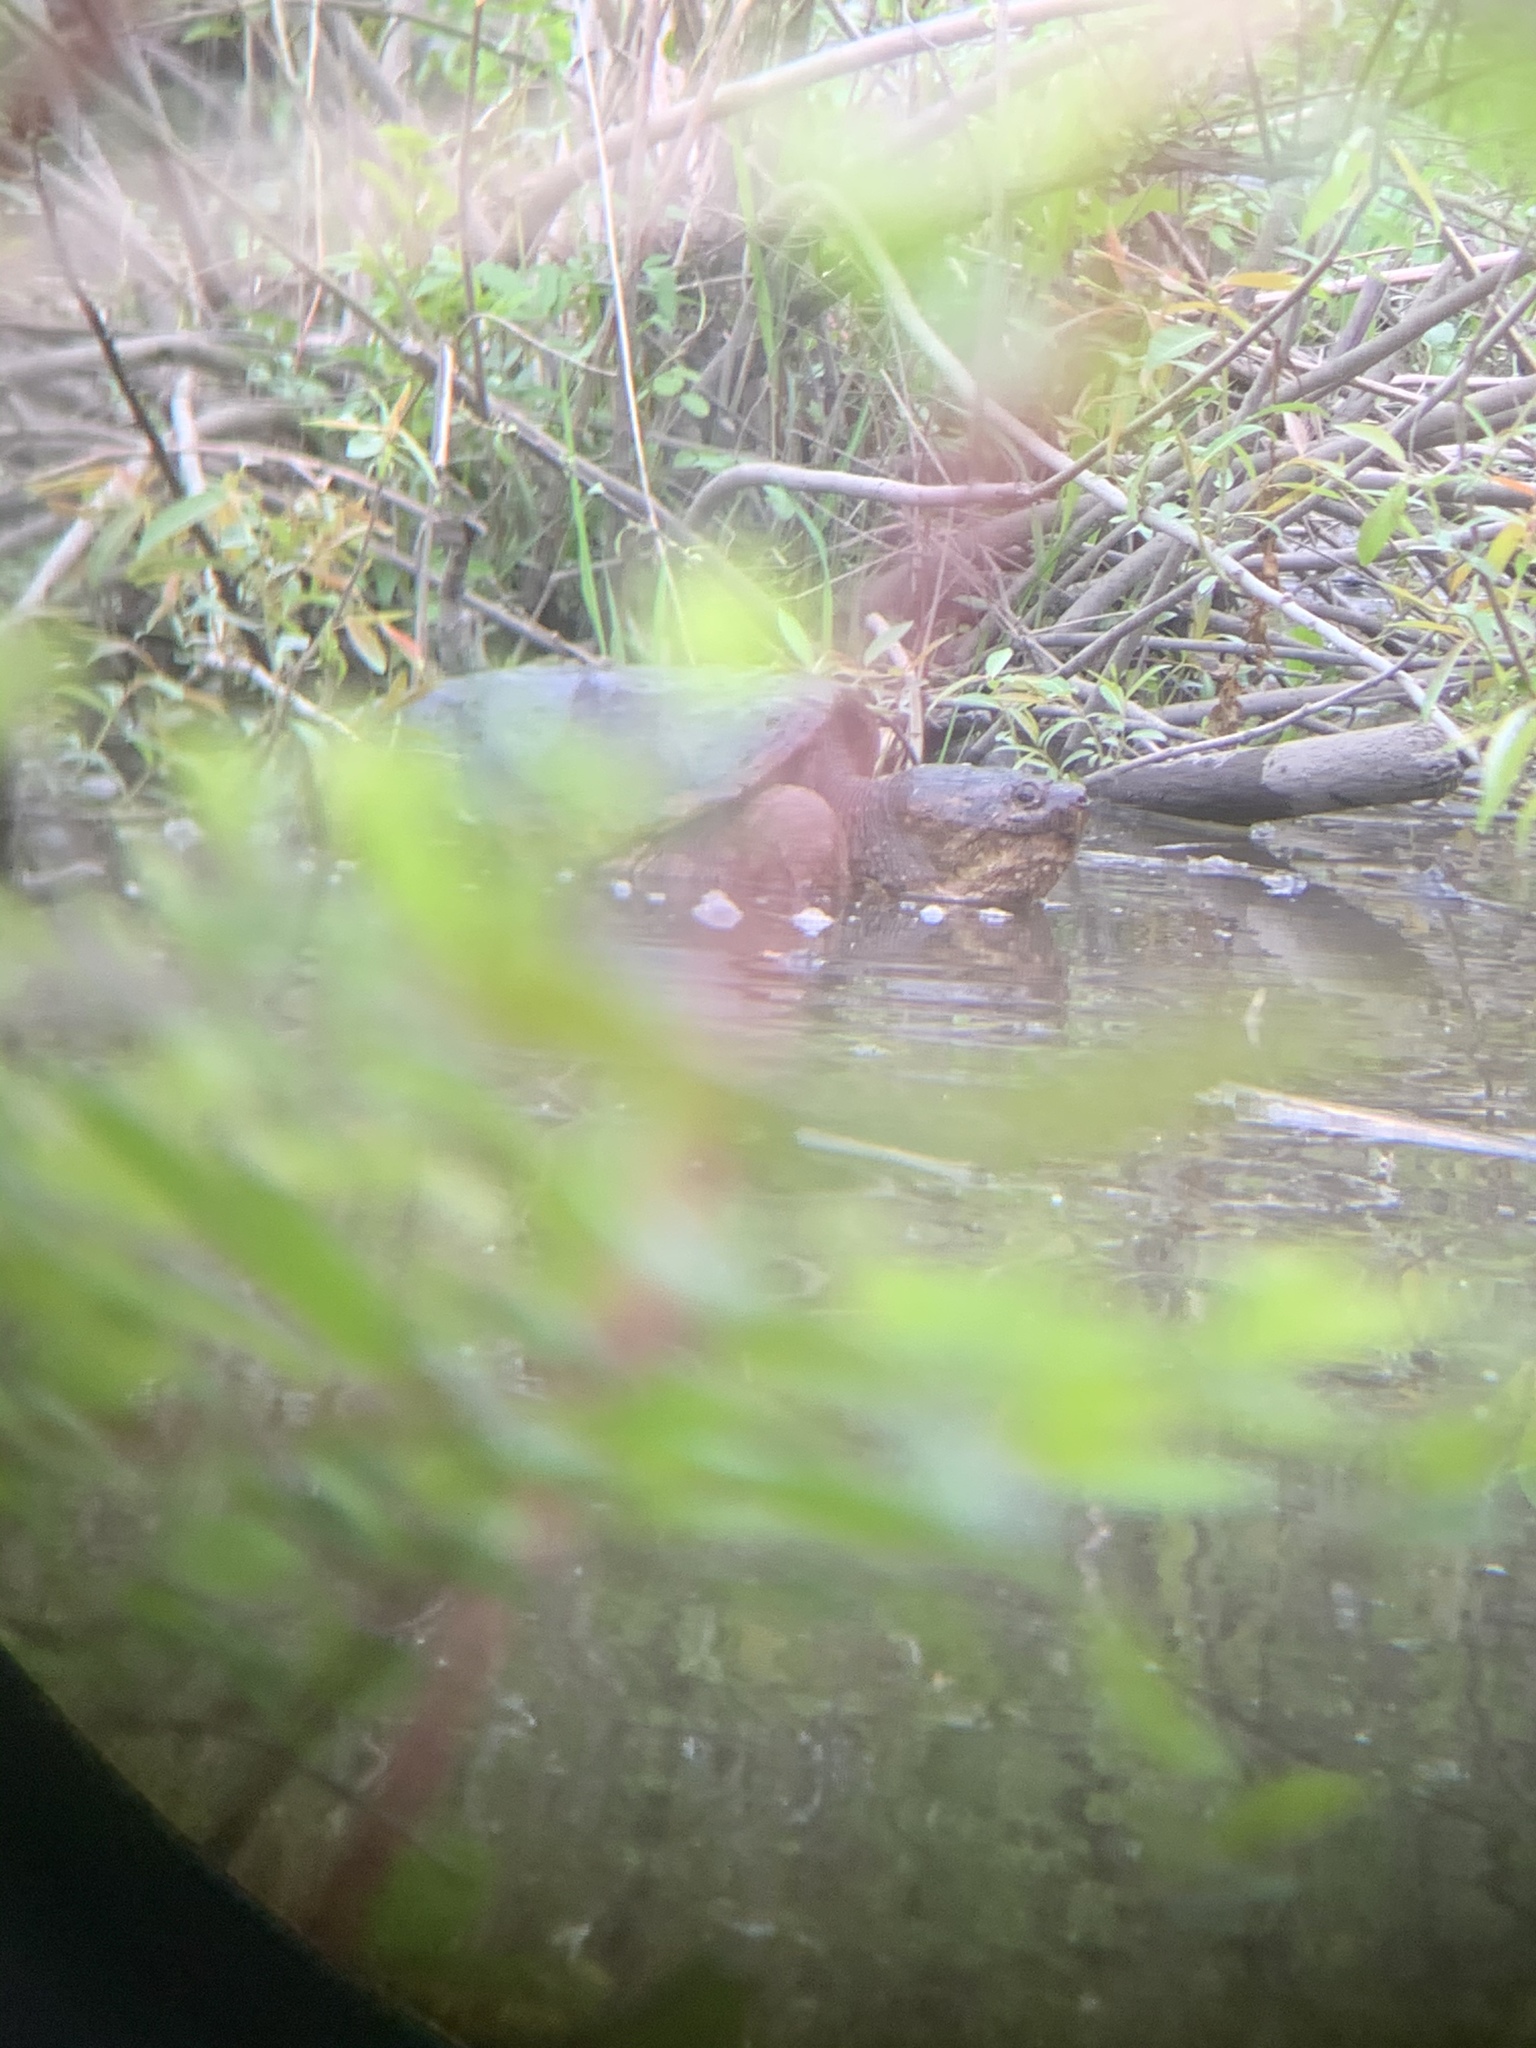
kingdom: Animalia
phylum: Chordata
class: Testudines
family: Chelydridae
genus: Chelydra
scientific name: Chelydra serpentina
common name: Common snapping turtle
